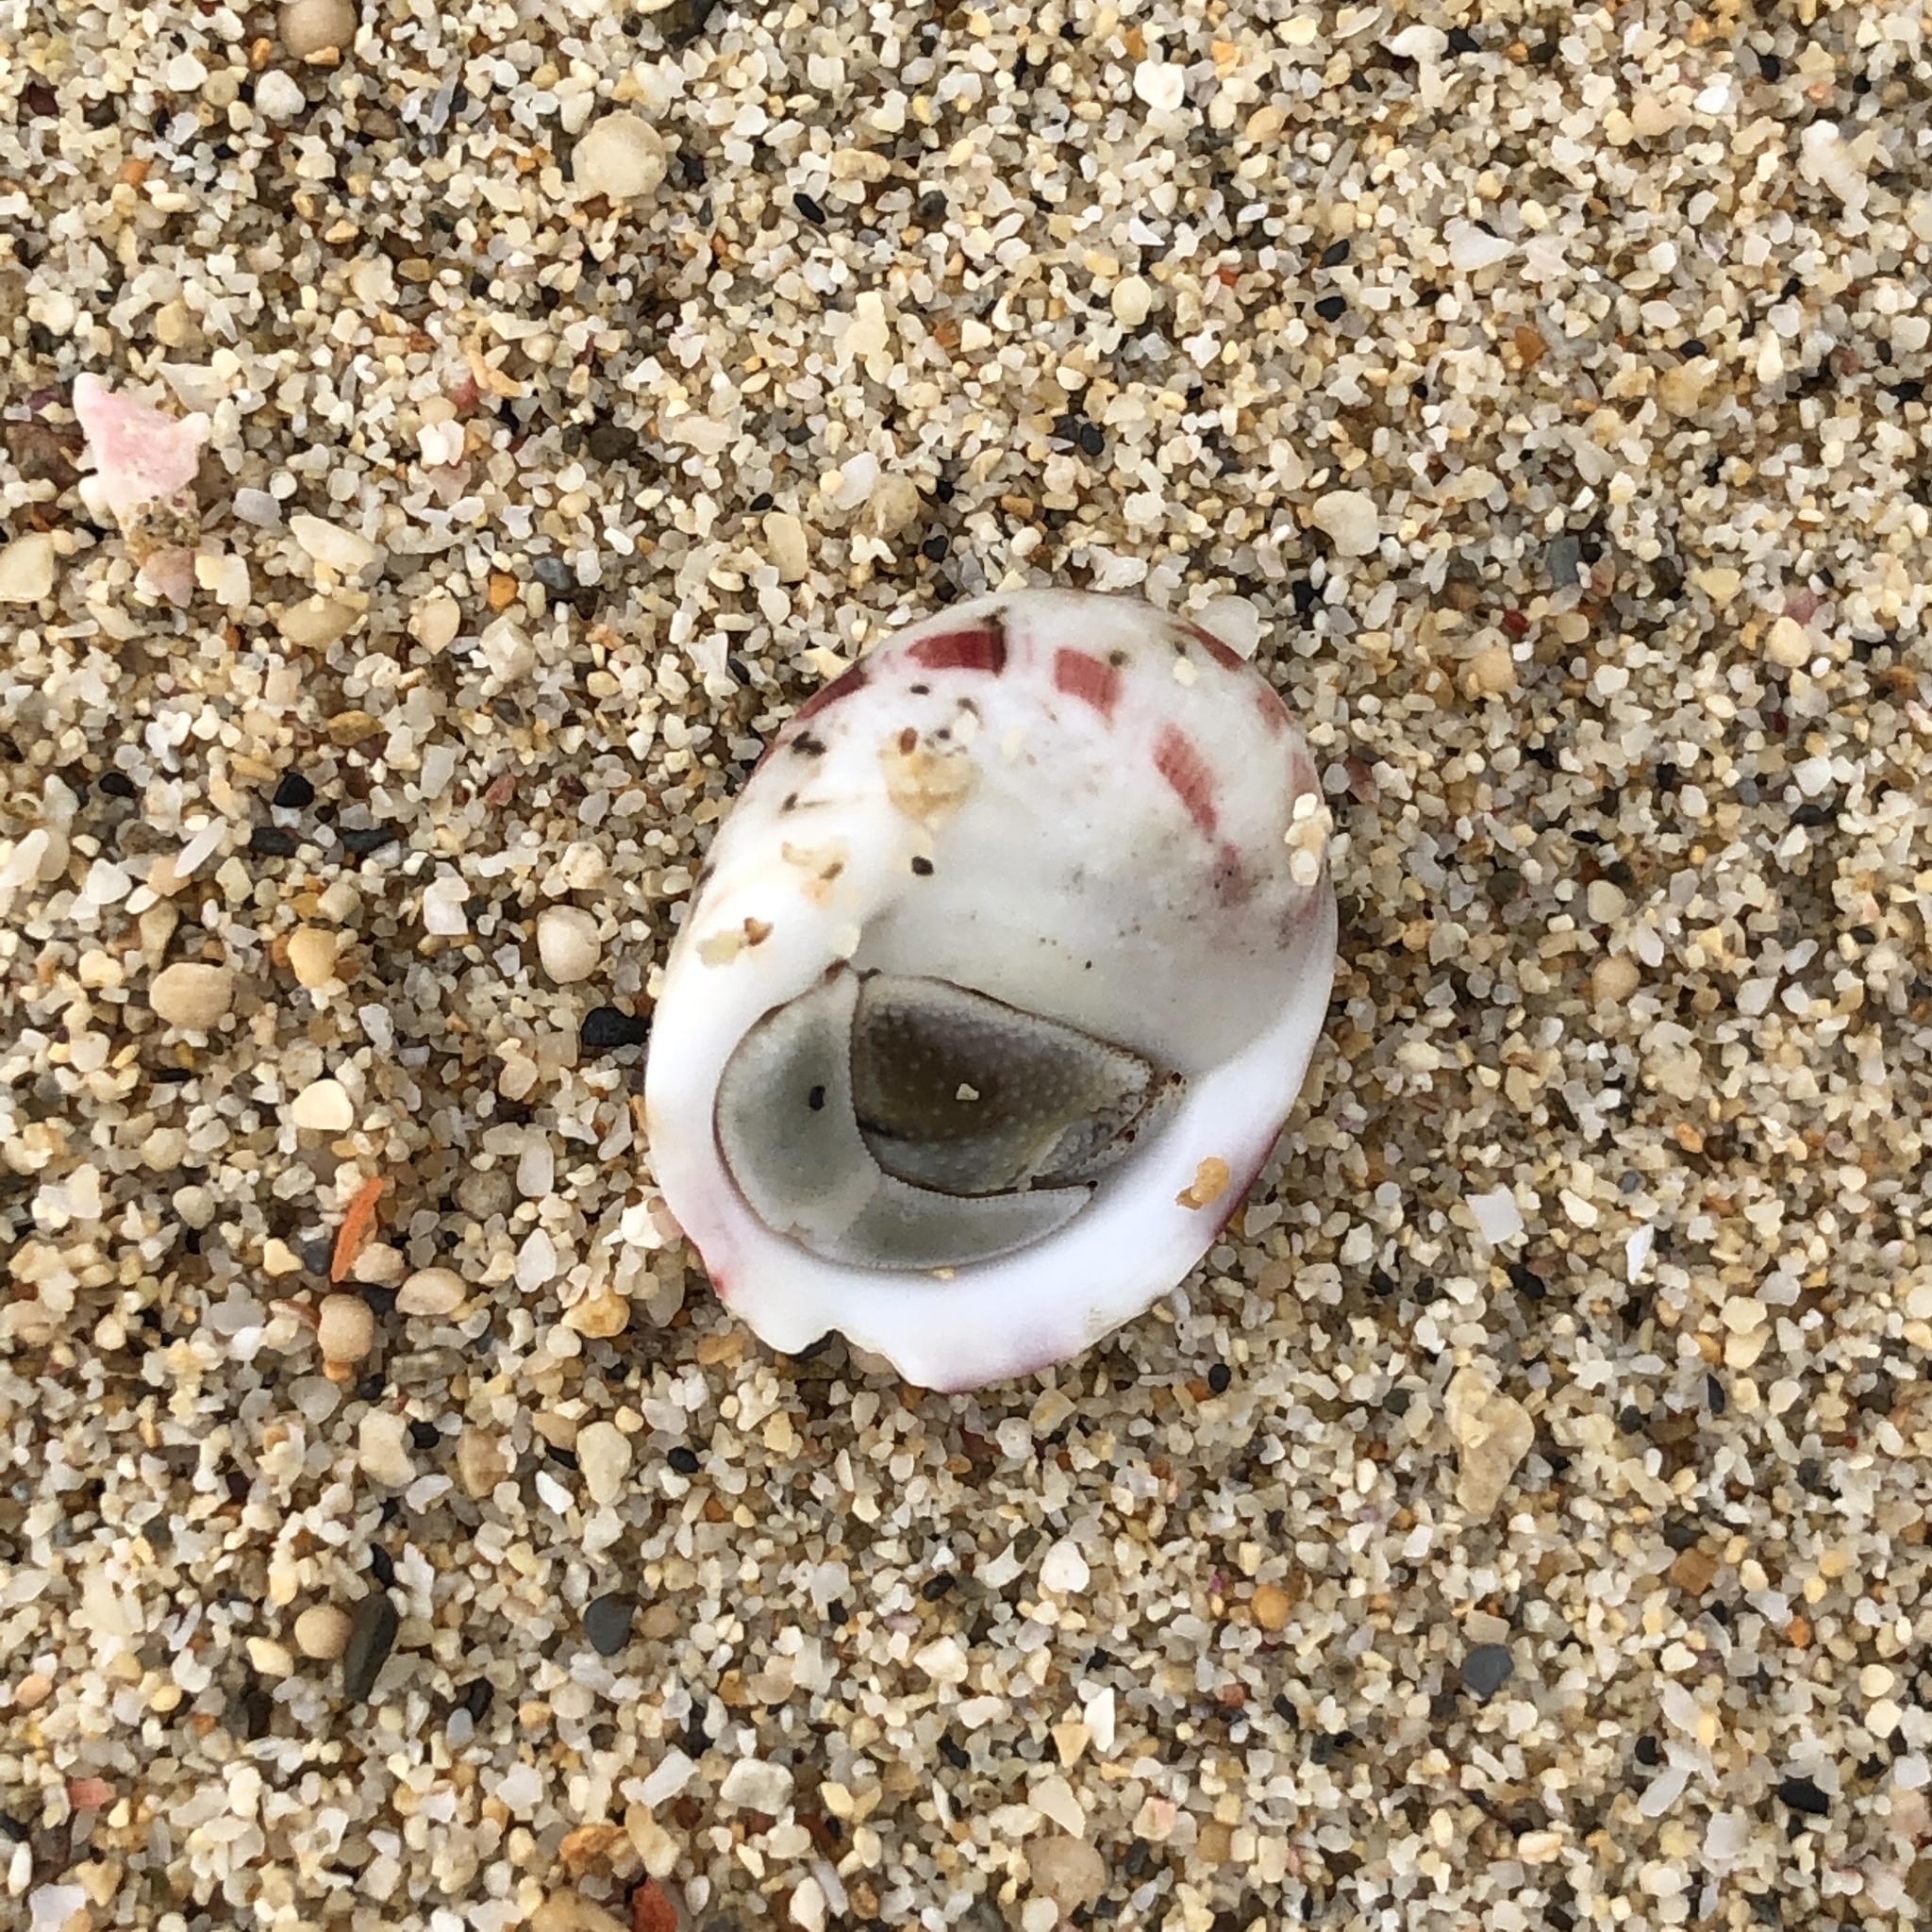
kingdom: Animalia
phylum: Mollusca
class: Gastropoda
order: Cycloneritida
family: Neritidae
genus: Nerita
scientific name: Nerita polita
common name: Polished nerite
